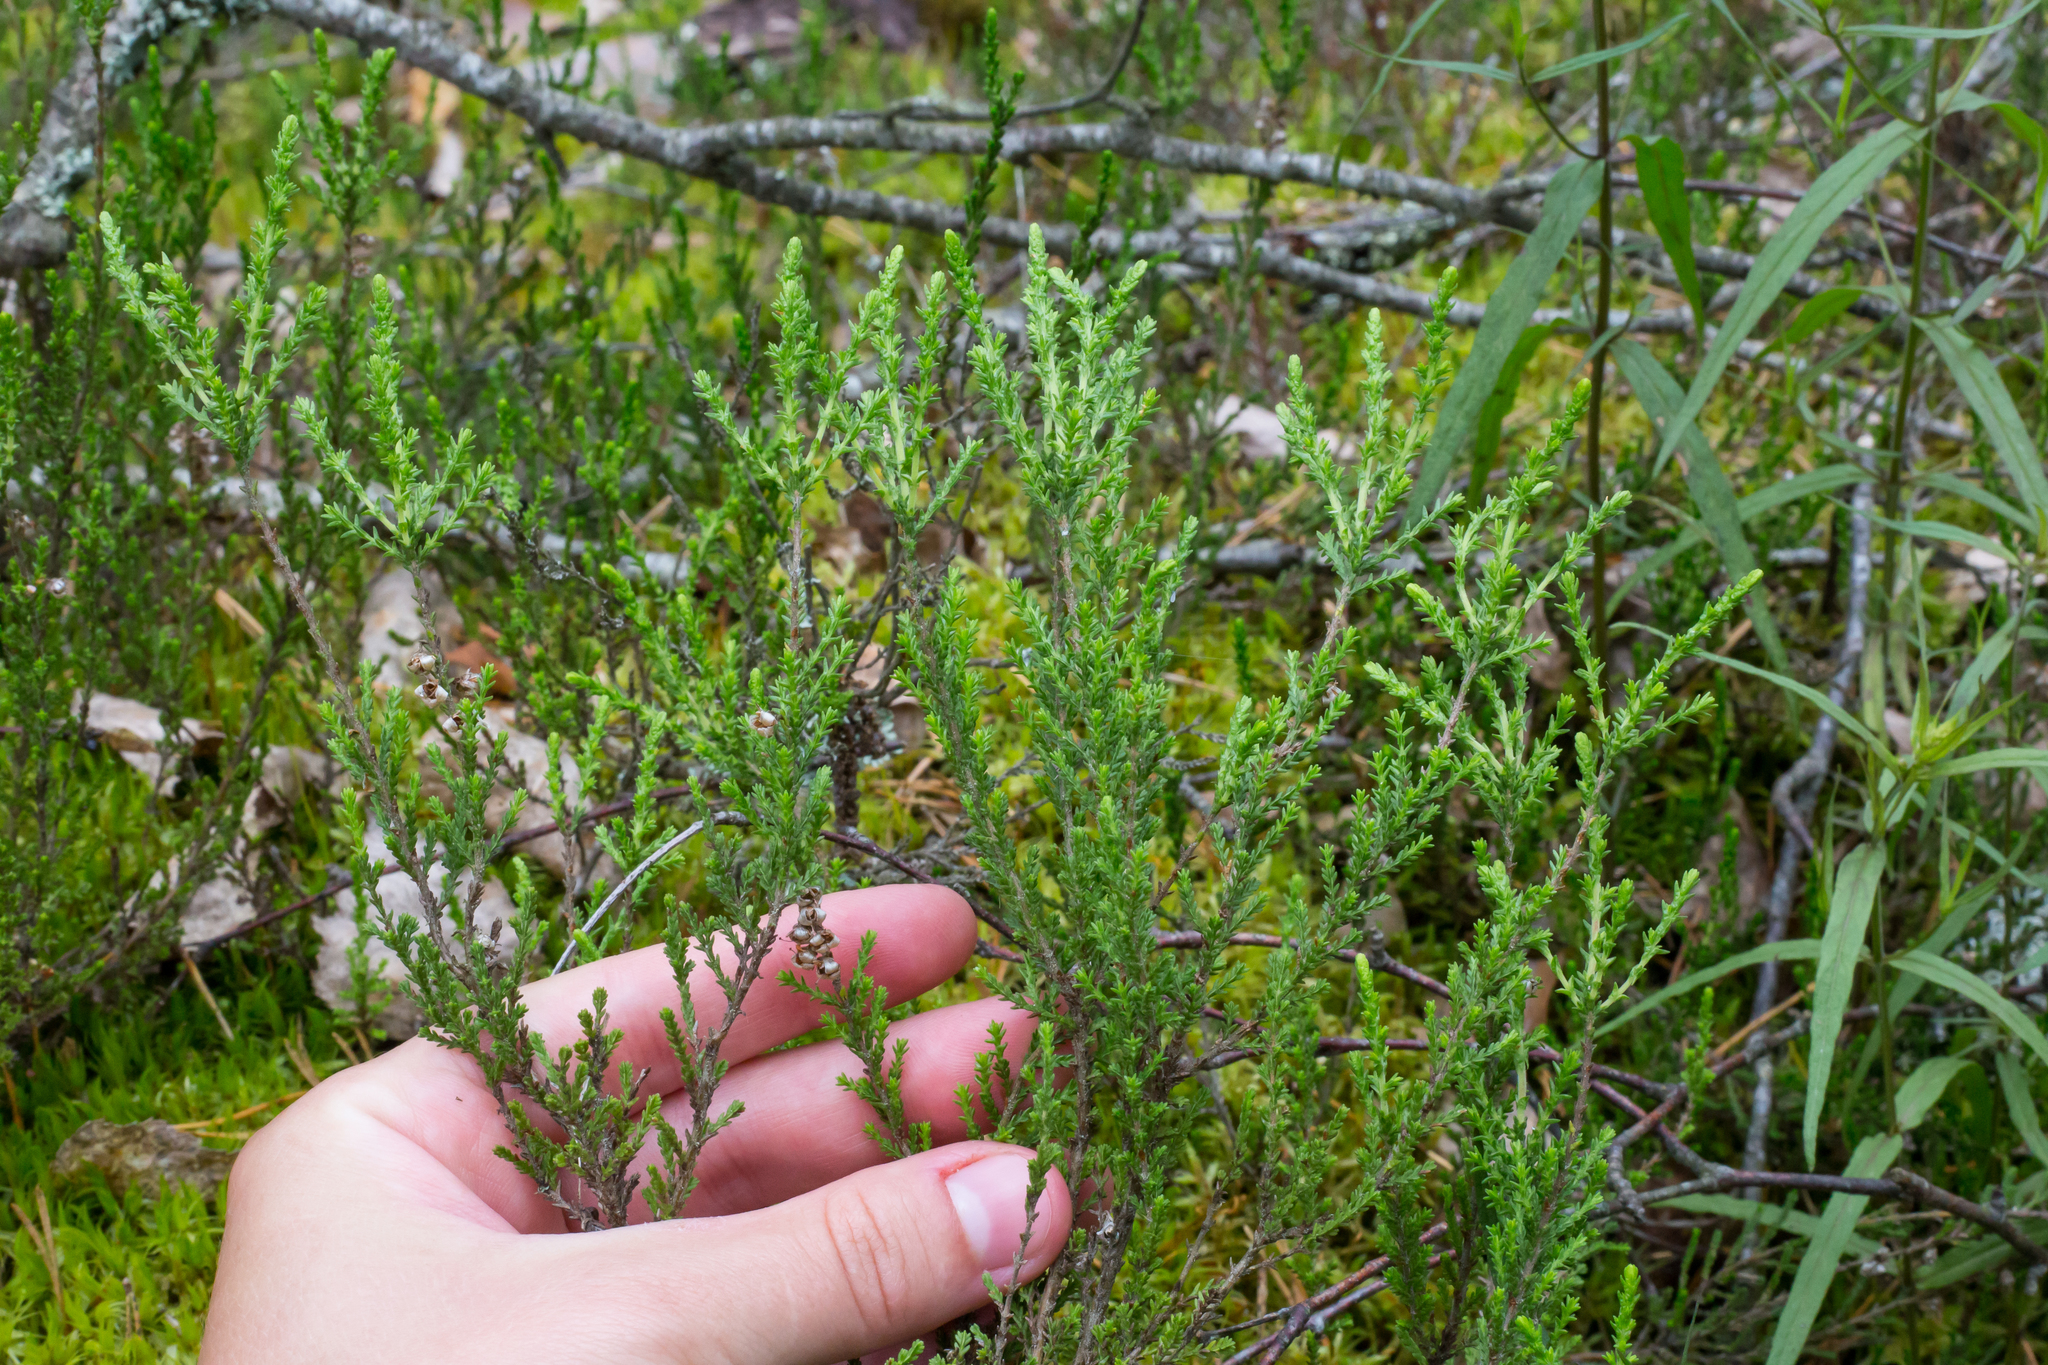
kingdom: Plantae
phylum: Tracheophyta
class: Magnoliopsida
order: Ericales
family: Ericaceae
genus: Calluna
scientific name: Calluna vulgaris
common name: Heather
